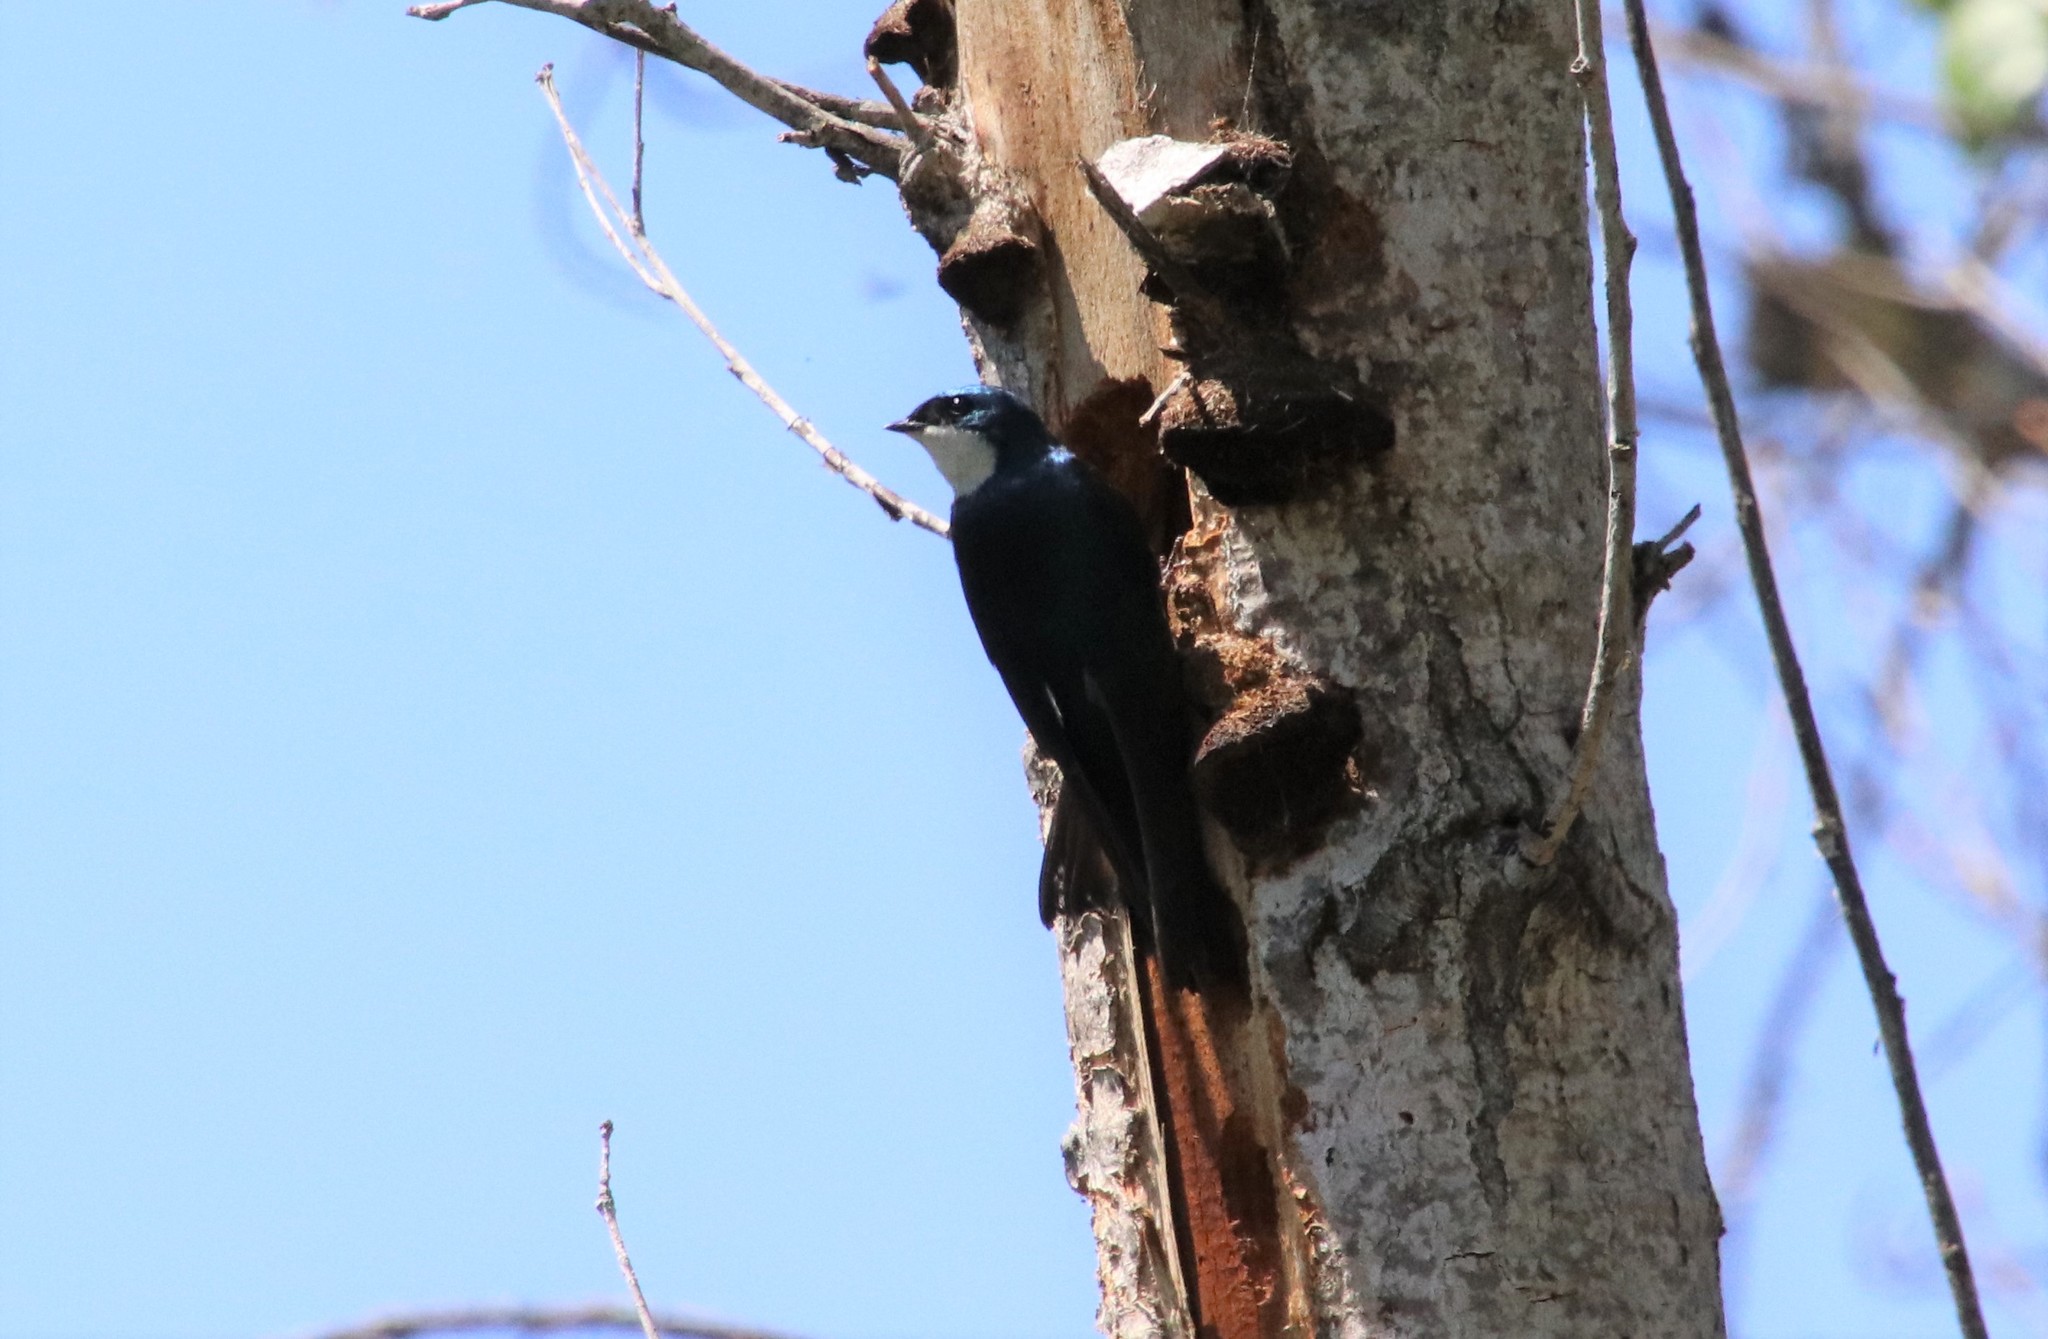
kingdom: Animalia
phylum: Chordata
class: Aves
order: Passeriformes
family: Hirundinidae
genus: Tachycineta
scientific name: Tachycineta bicolor
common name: Tree swallow
